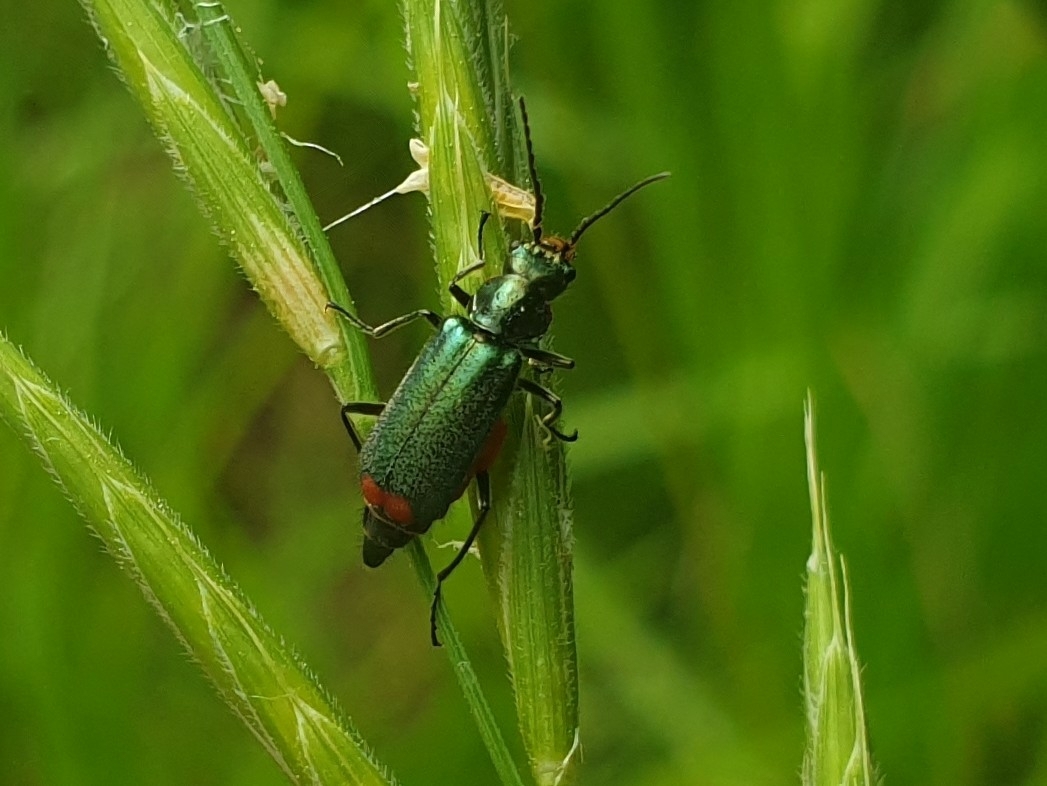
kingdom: Animalia
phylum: Arthropoda
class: Insecta
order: Coleoptera
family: Melyridae
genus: Malachius
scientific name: Malachius bipustulatus
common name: Malachite beetle
